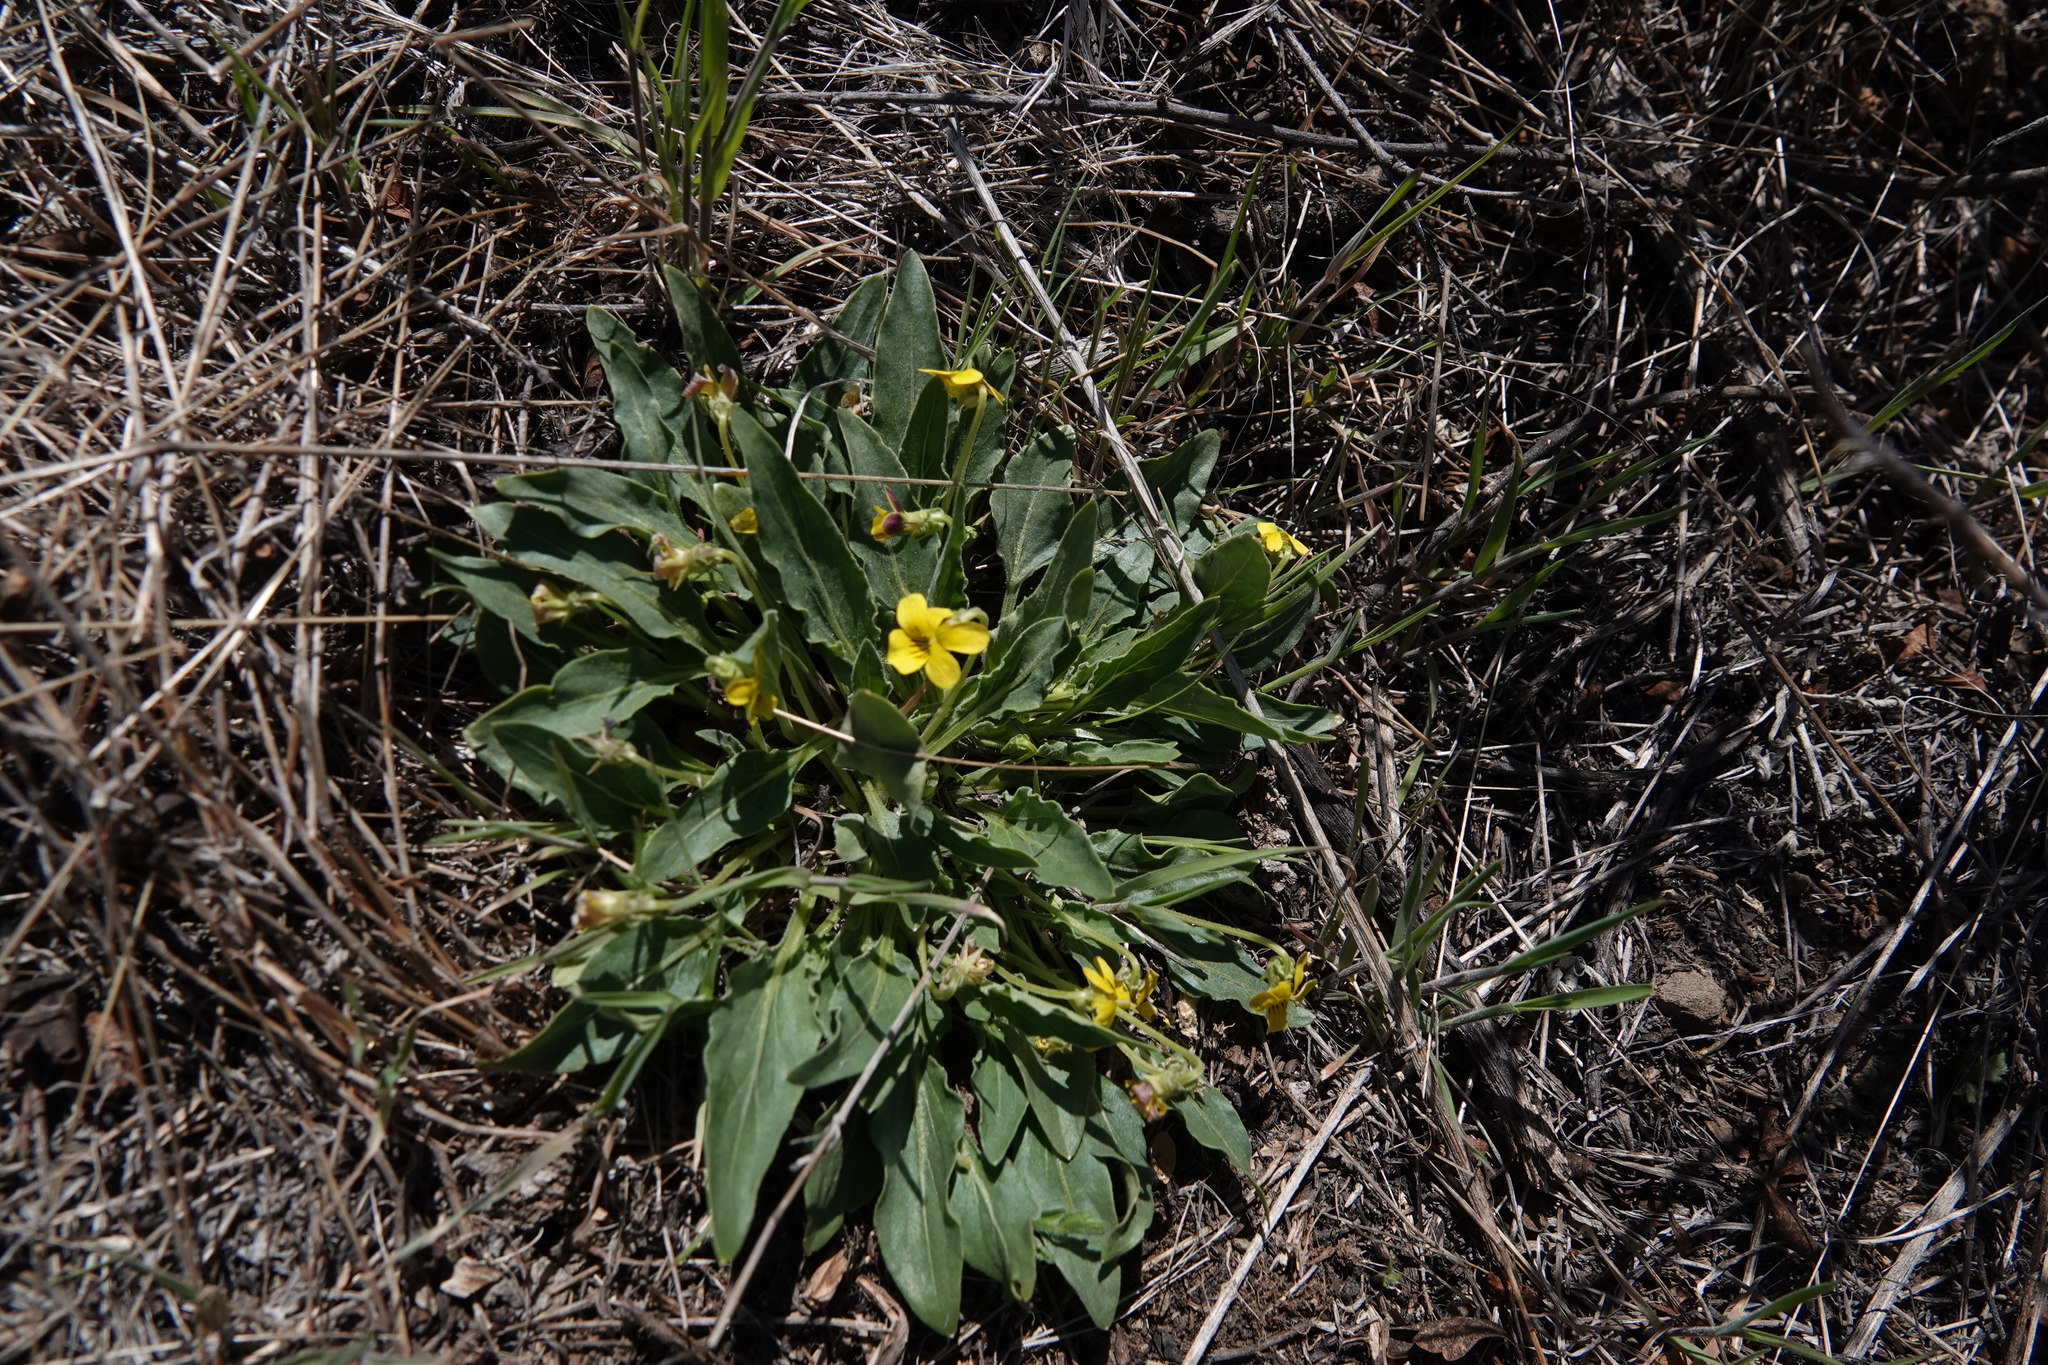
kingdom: Plantae
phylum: Tracheophyta
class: Magnoliopsida
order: Malpighiales
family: Violaceae
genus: Viola
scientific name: Viola nuttallii
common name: Yellow prairie violet
